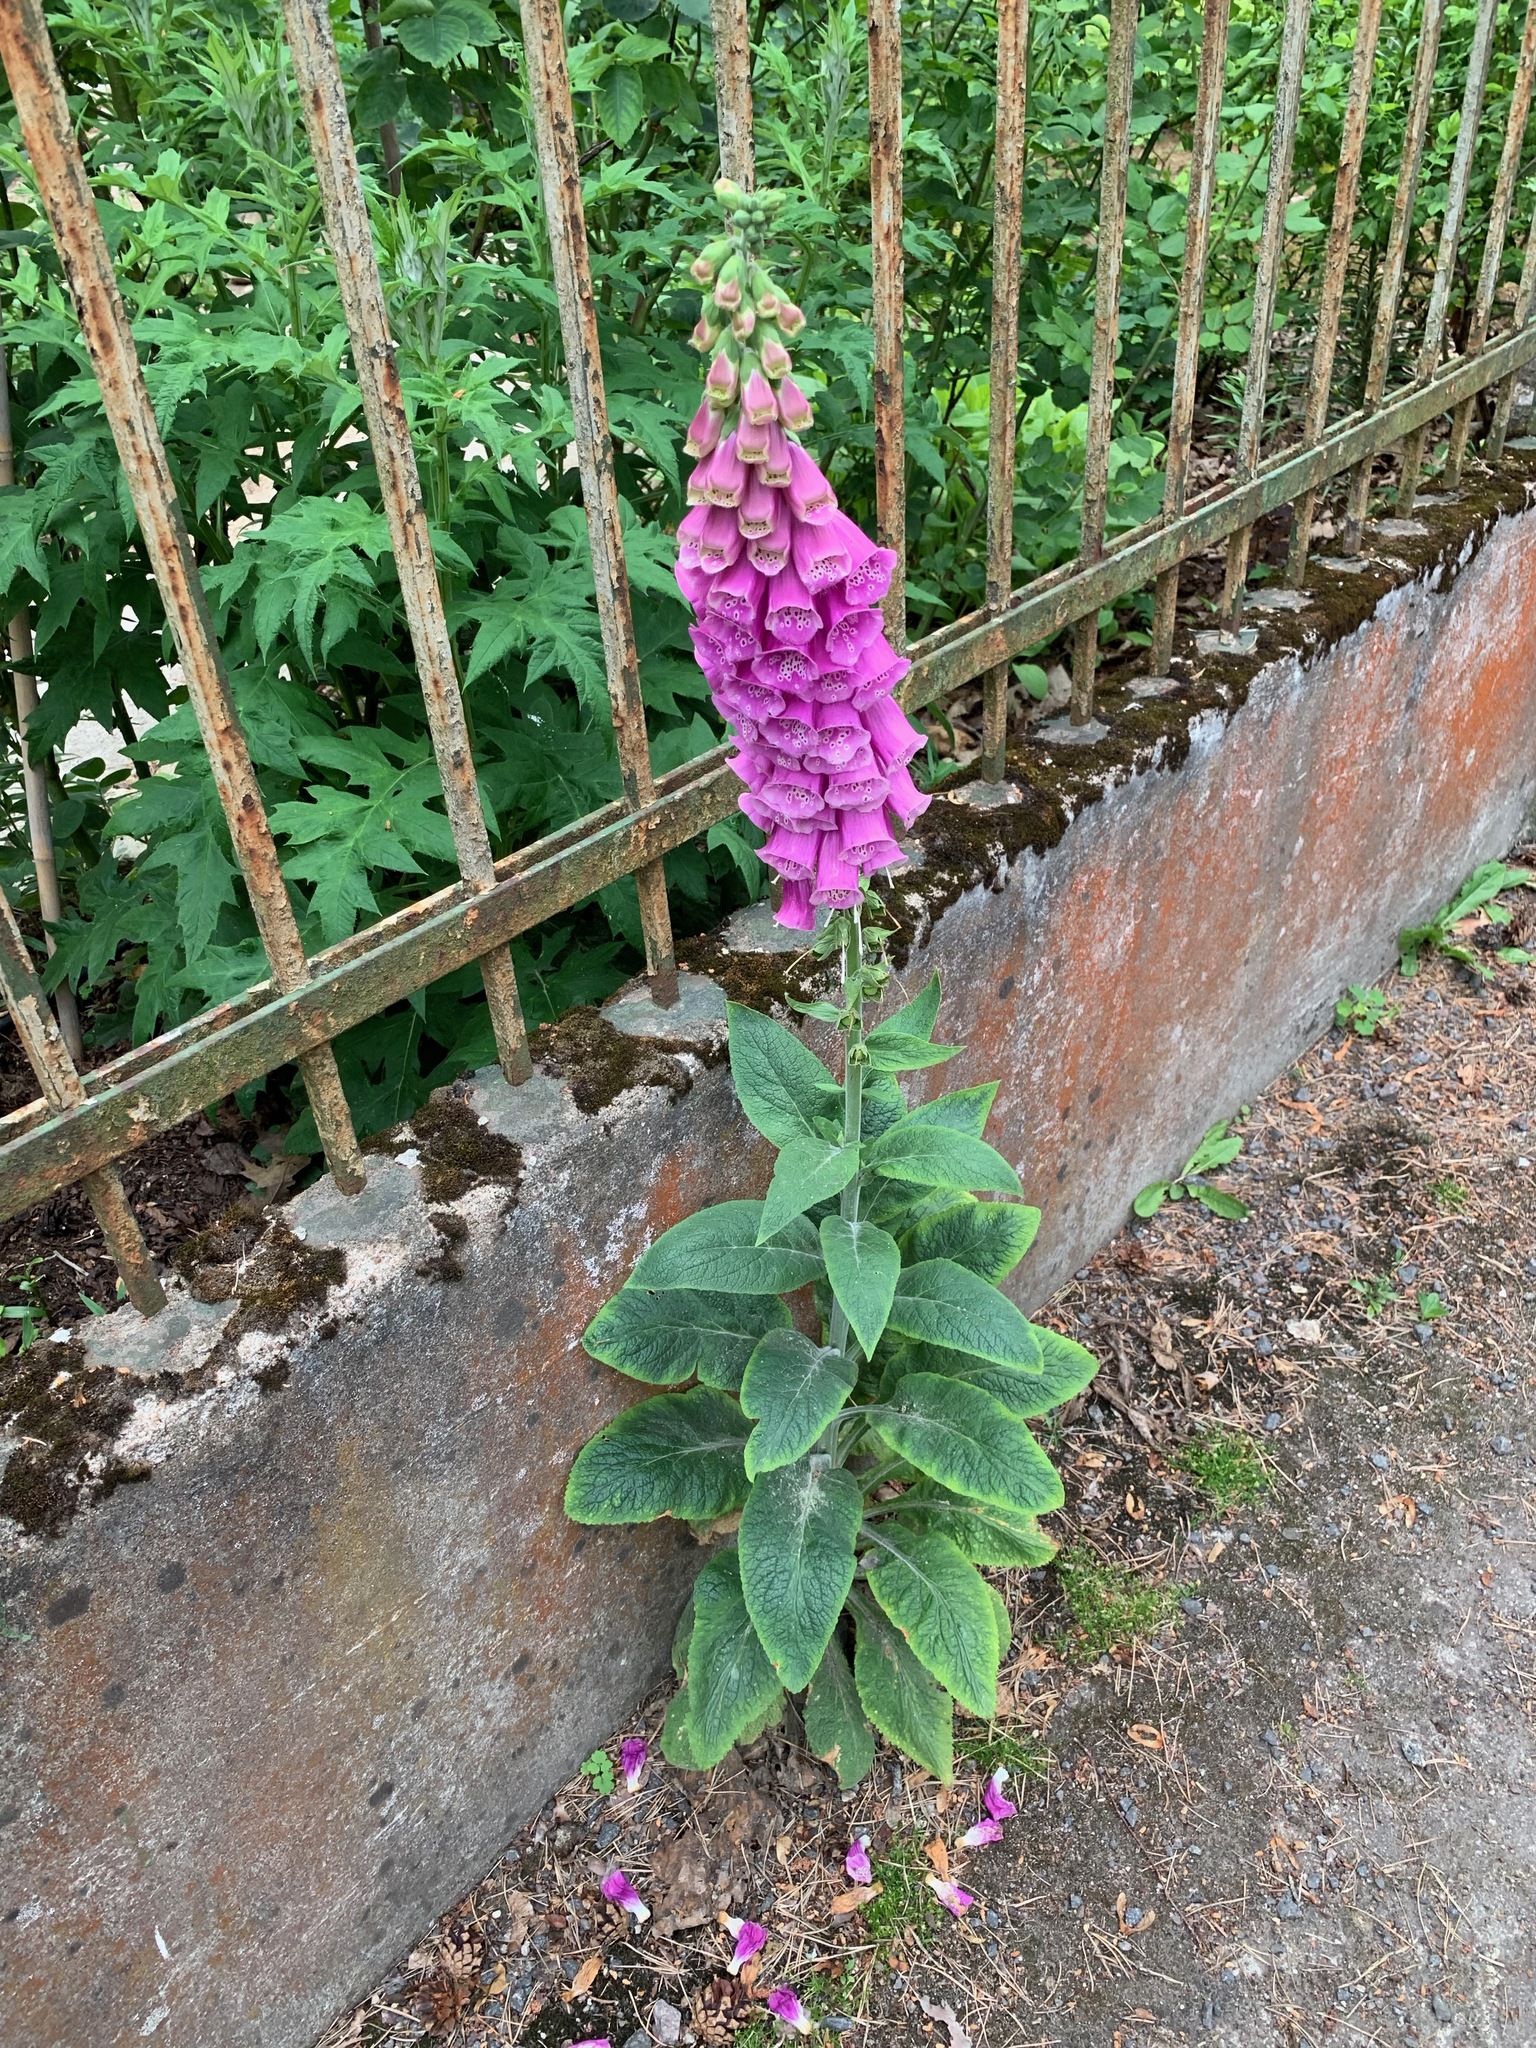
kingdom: Plantae
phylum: Tracheophyta
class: Magnoliopsida
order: Lamiales
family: Plantaginaceae
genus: Digitalis
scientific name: Digitalis purpurea
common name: Foxglove
